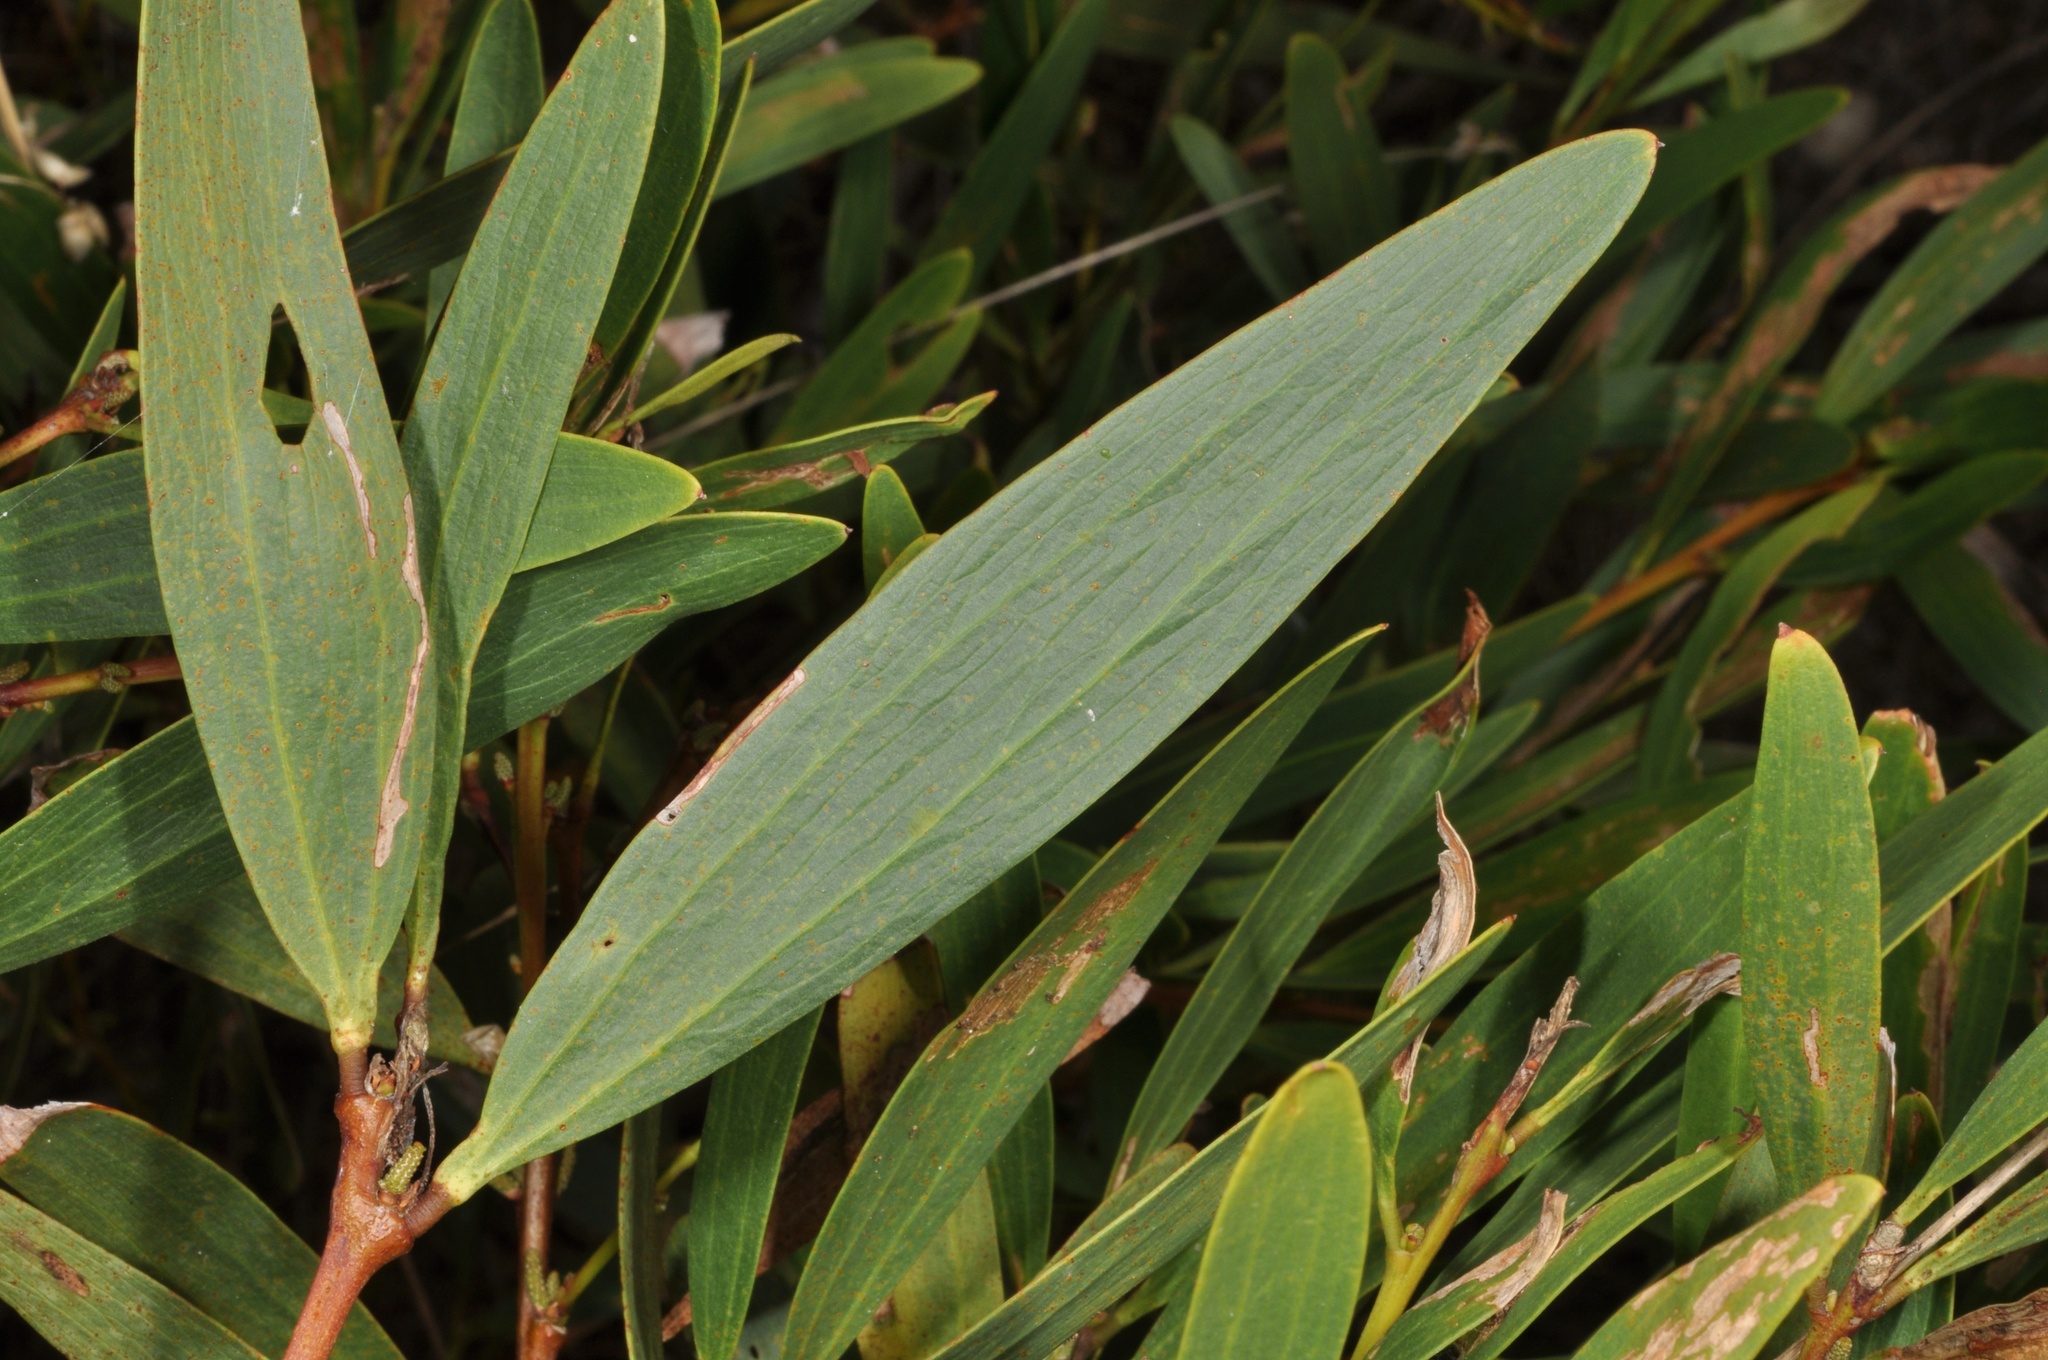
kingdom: Plantae
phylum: Tracheophyta
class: Magnoliopsida
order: Fabales
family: Fabaceae
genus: Acacia
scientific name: Acacia longifolia
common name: Sydney golden wattle
